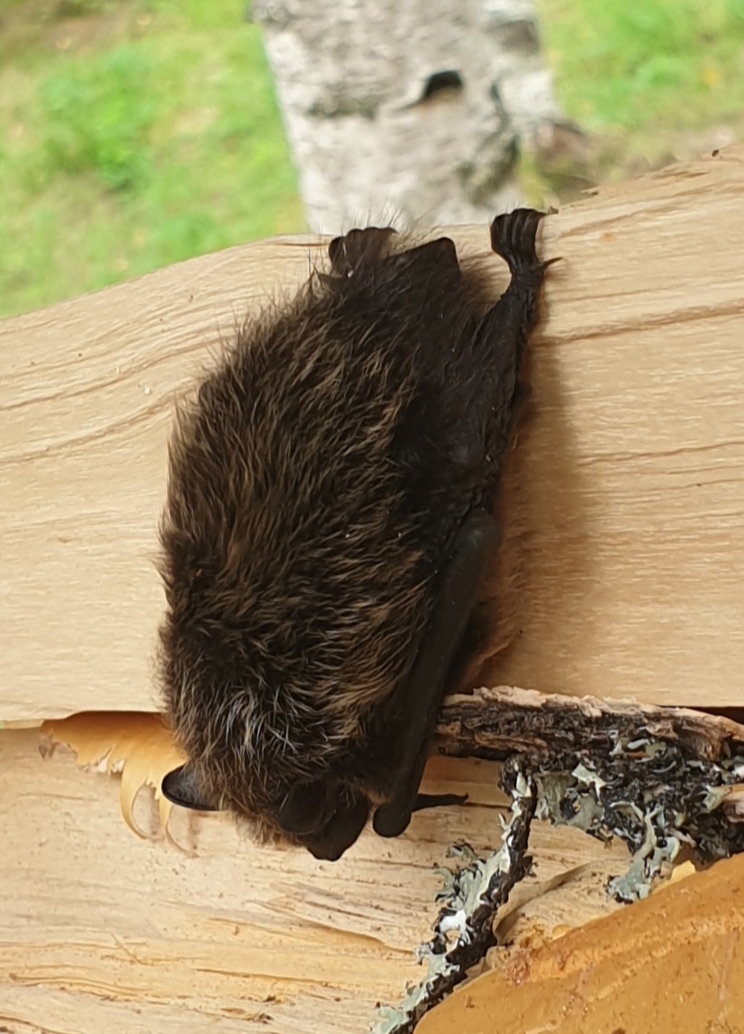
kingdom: Animalia
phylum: Chordata
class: Mammalia
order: Chiroptera
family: Vespertilionidae
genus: Eptesicus
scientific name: Eptesicus nilssonii
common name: Northern bat
